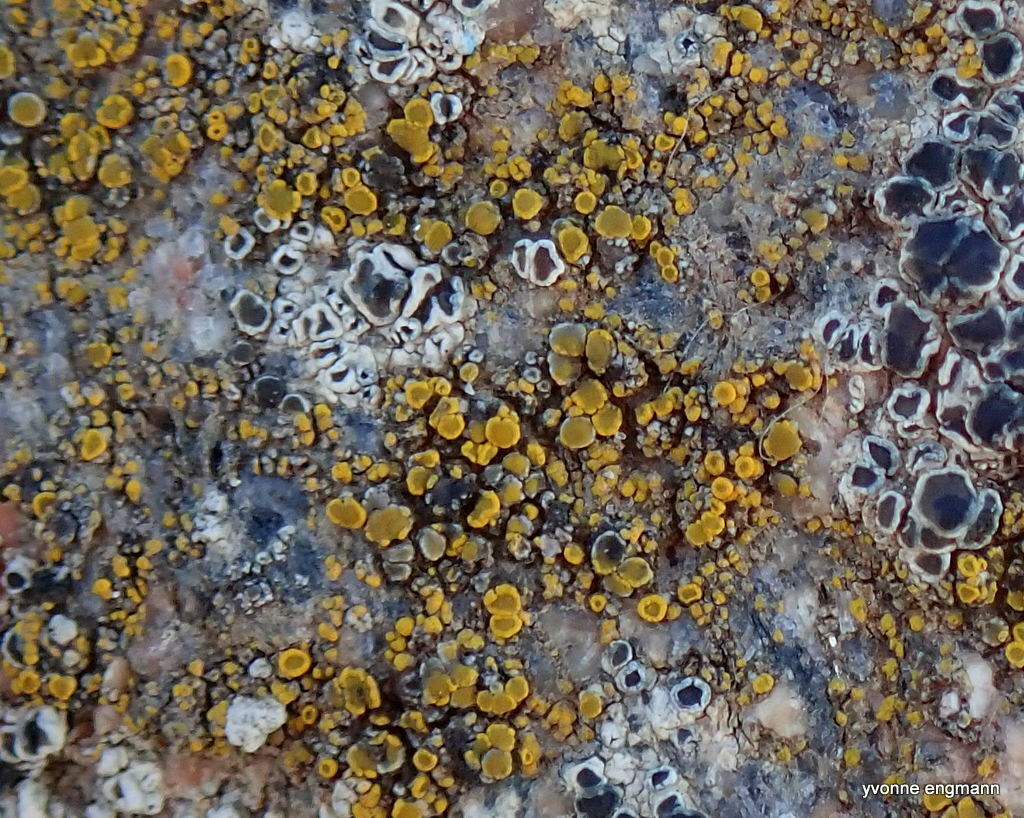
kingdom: Fungi
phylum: Ascomycota
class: Candelariomycetes
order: Candelariales
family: Candelariaceae
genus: Candelariella
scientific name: Candelariella vitellina
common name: Common goldspeck
